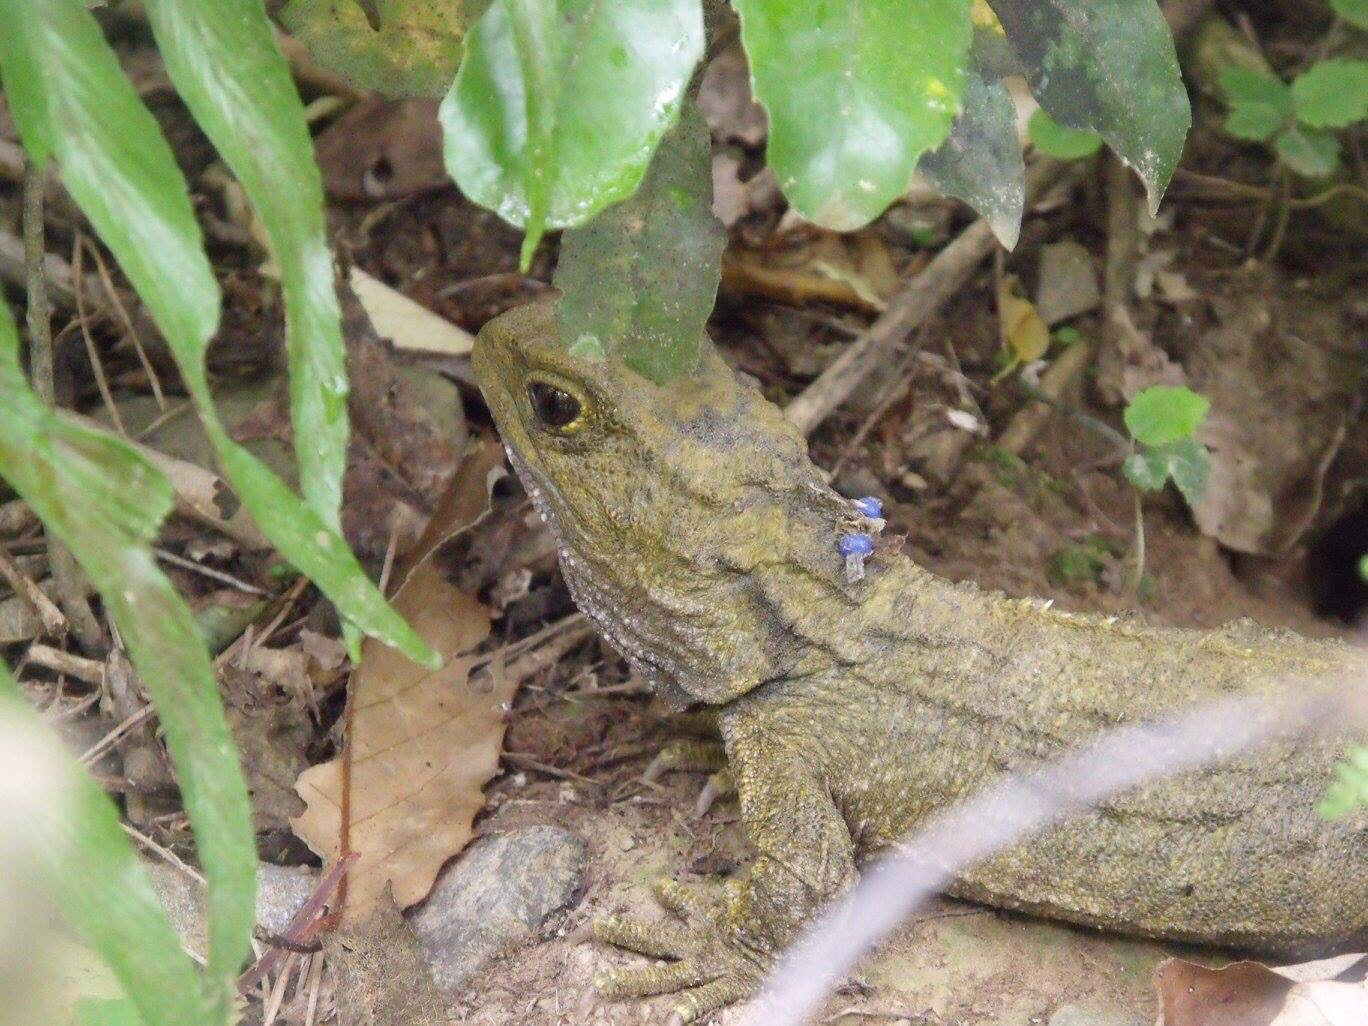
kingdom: Animalia
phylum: Chordata
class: Sphenodontia
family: Sphenodontidae
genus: Sphenodon
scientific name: Sphenodon punctatus
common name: Tuatara
